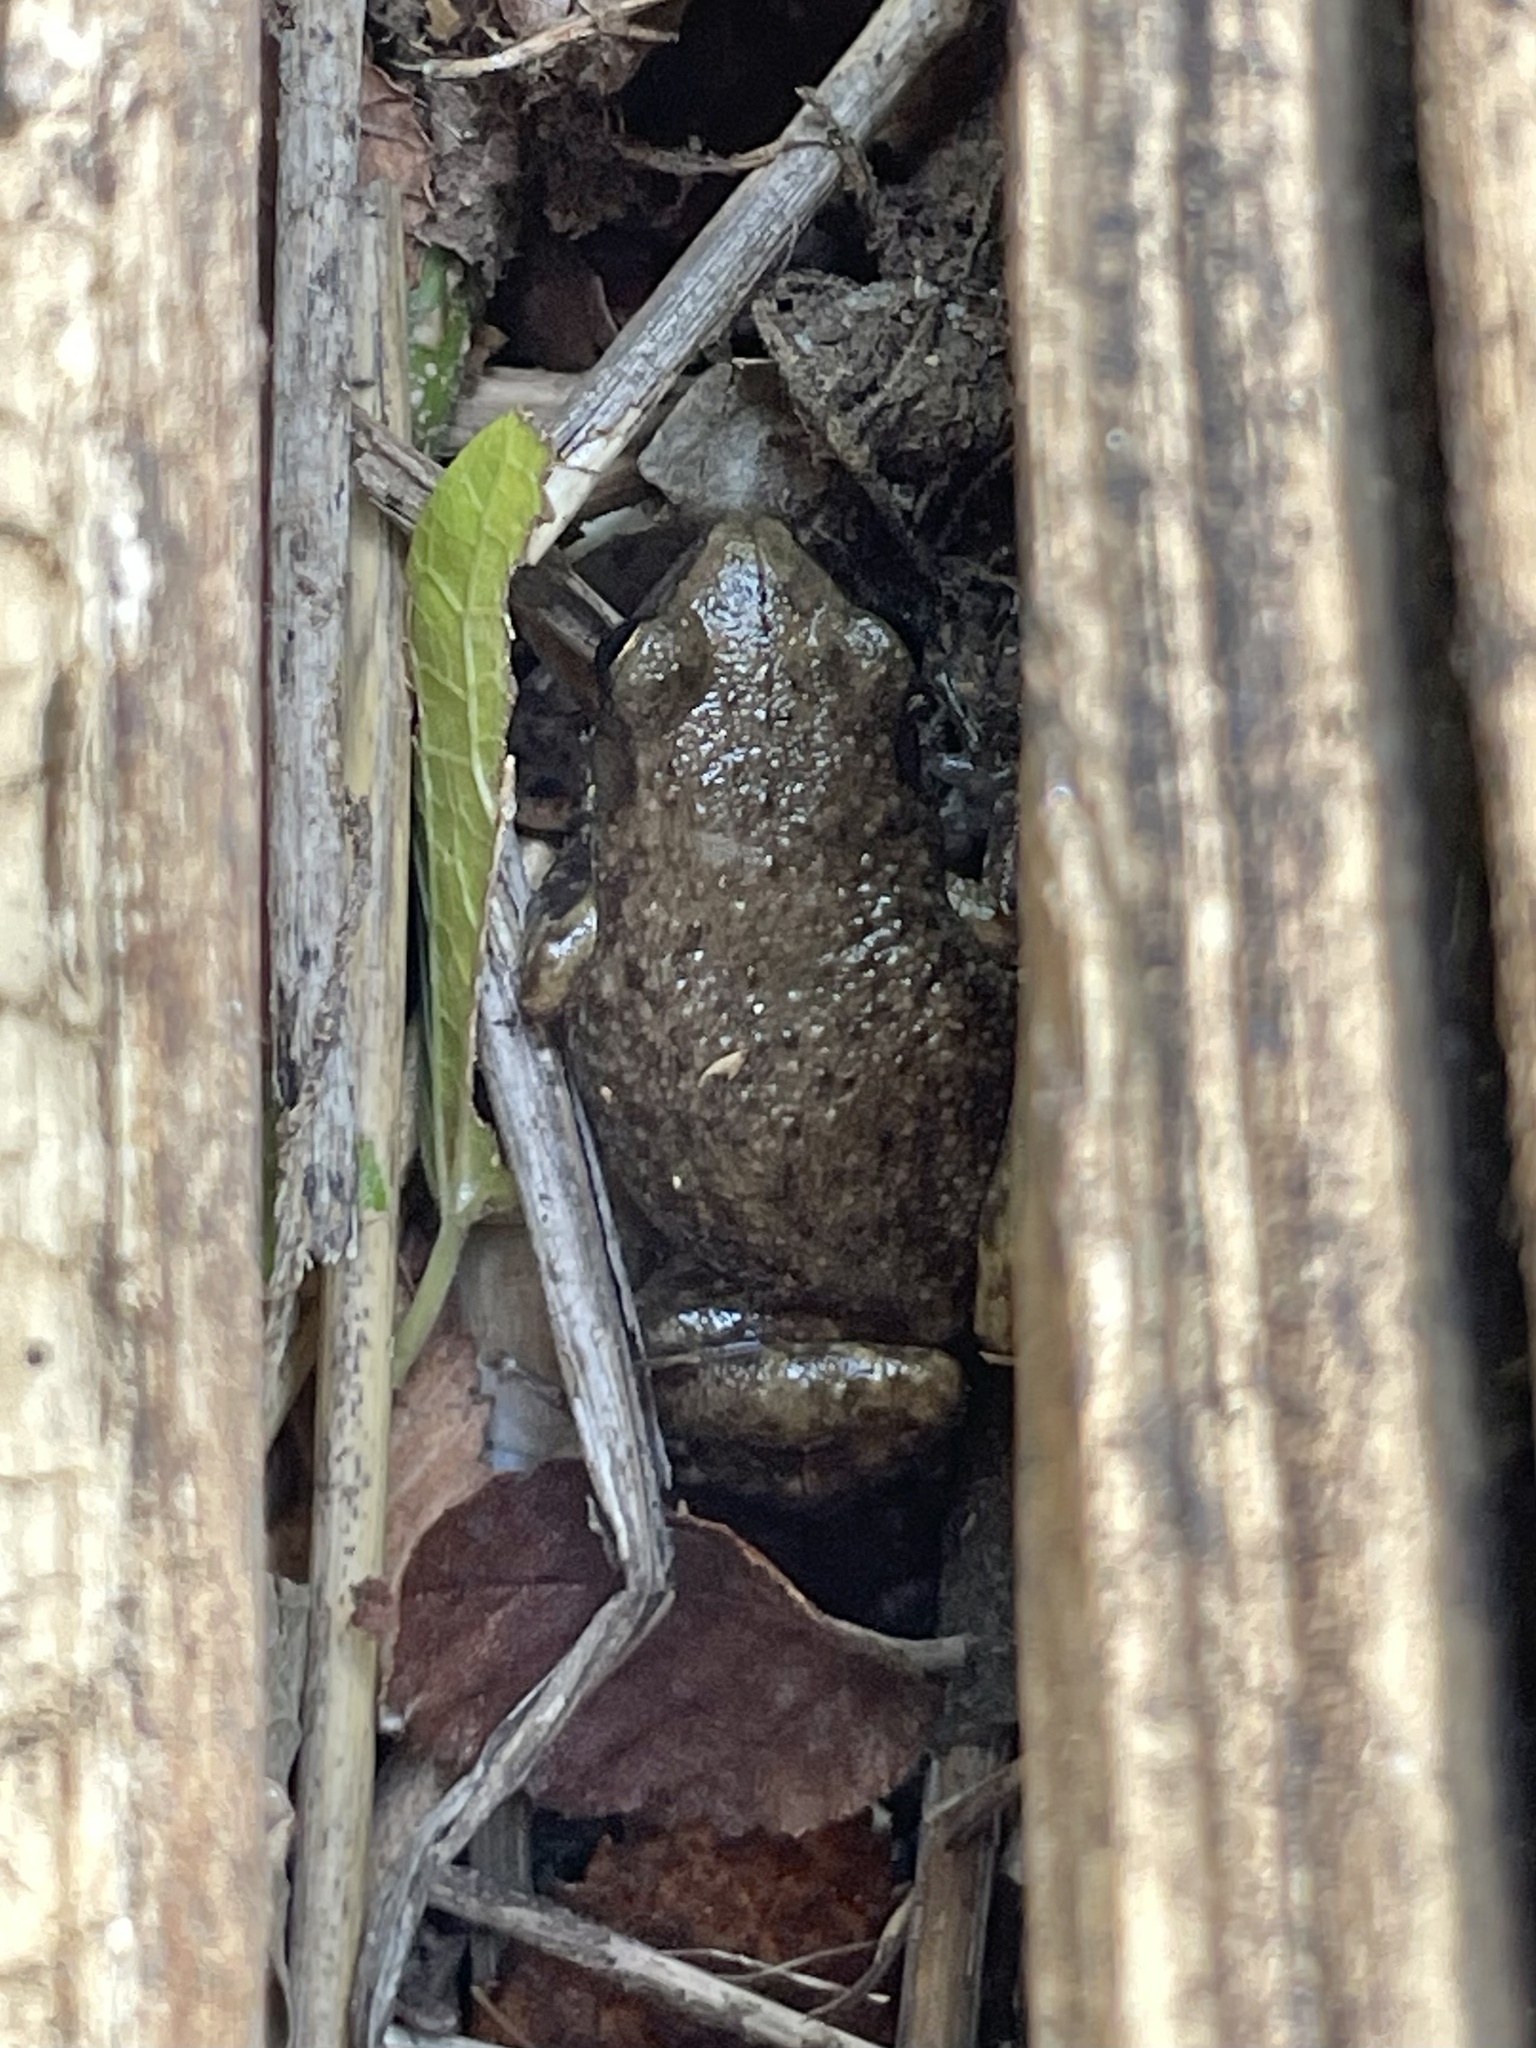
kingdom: Animalia
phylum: Chordata
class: Amphibia
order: Anura
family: Eleutherodactylidae
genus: Eleutherodactylus
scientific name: Eleutherodactylus campi
